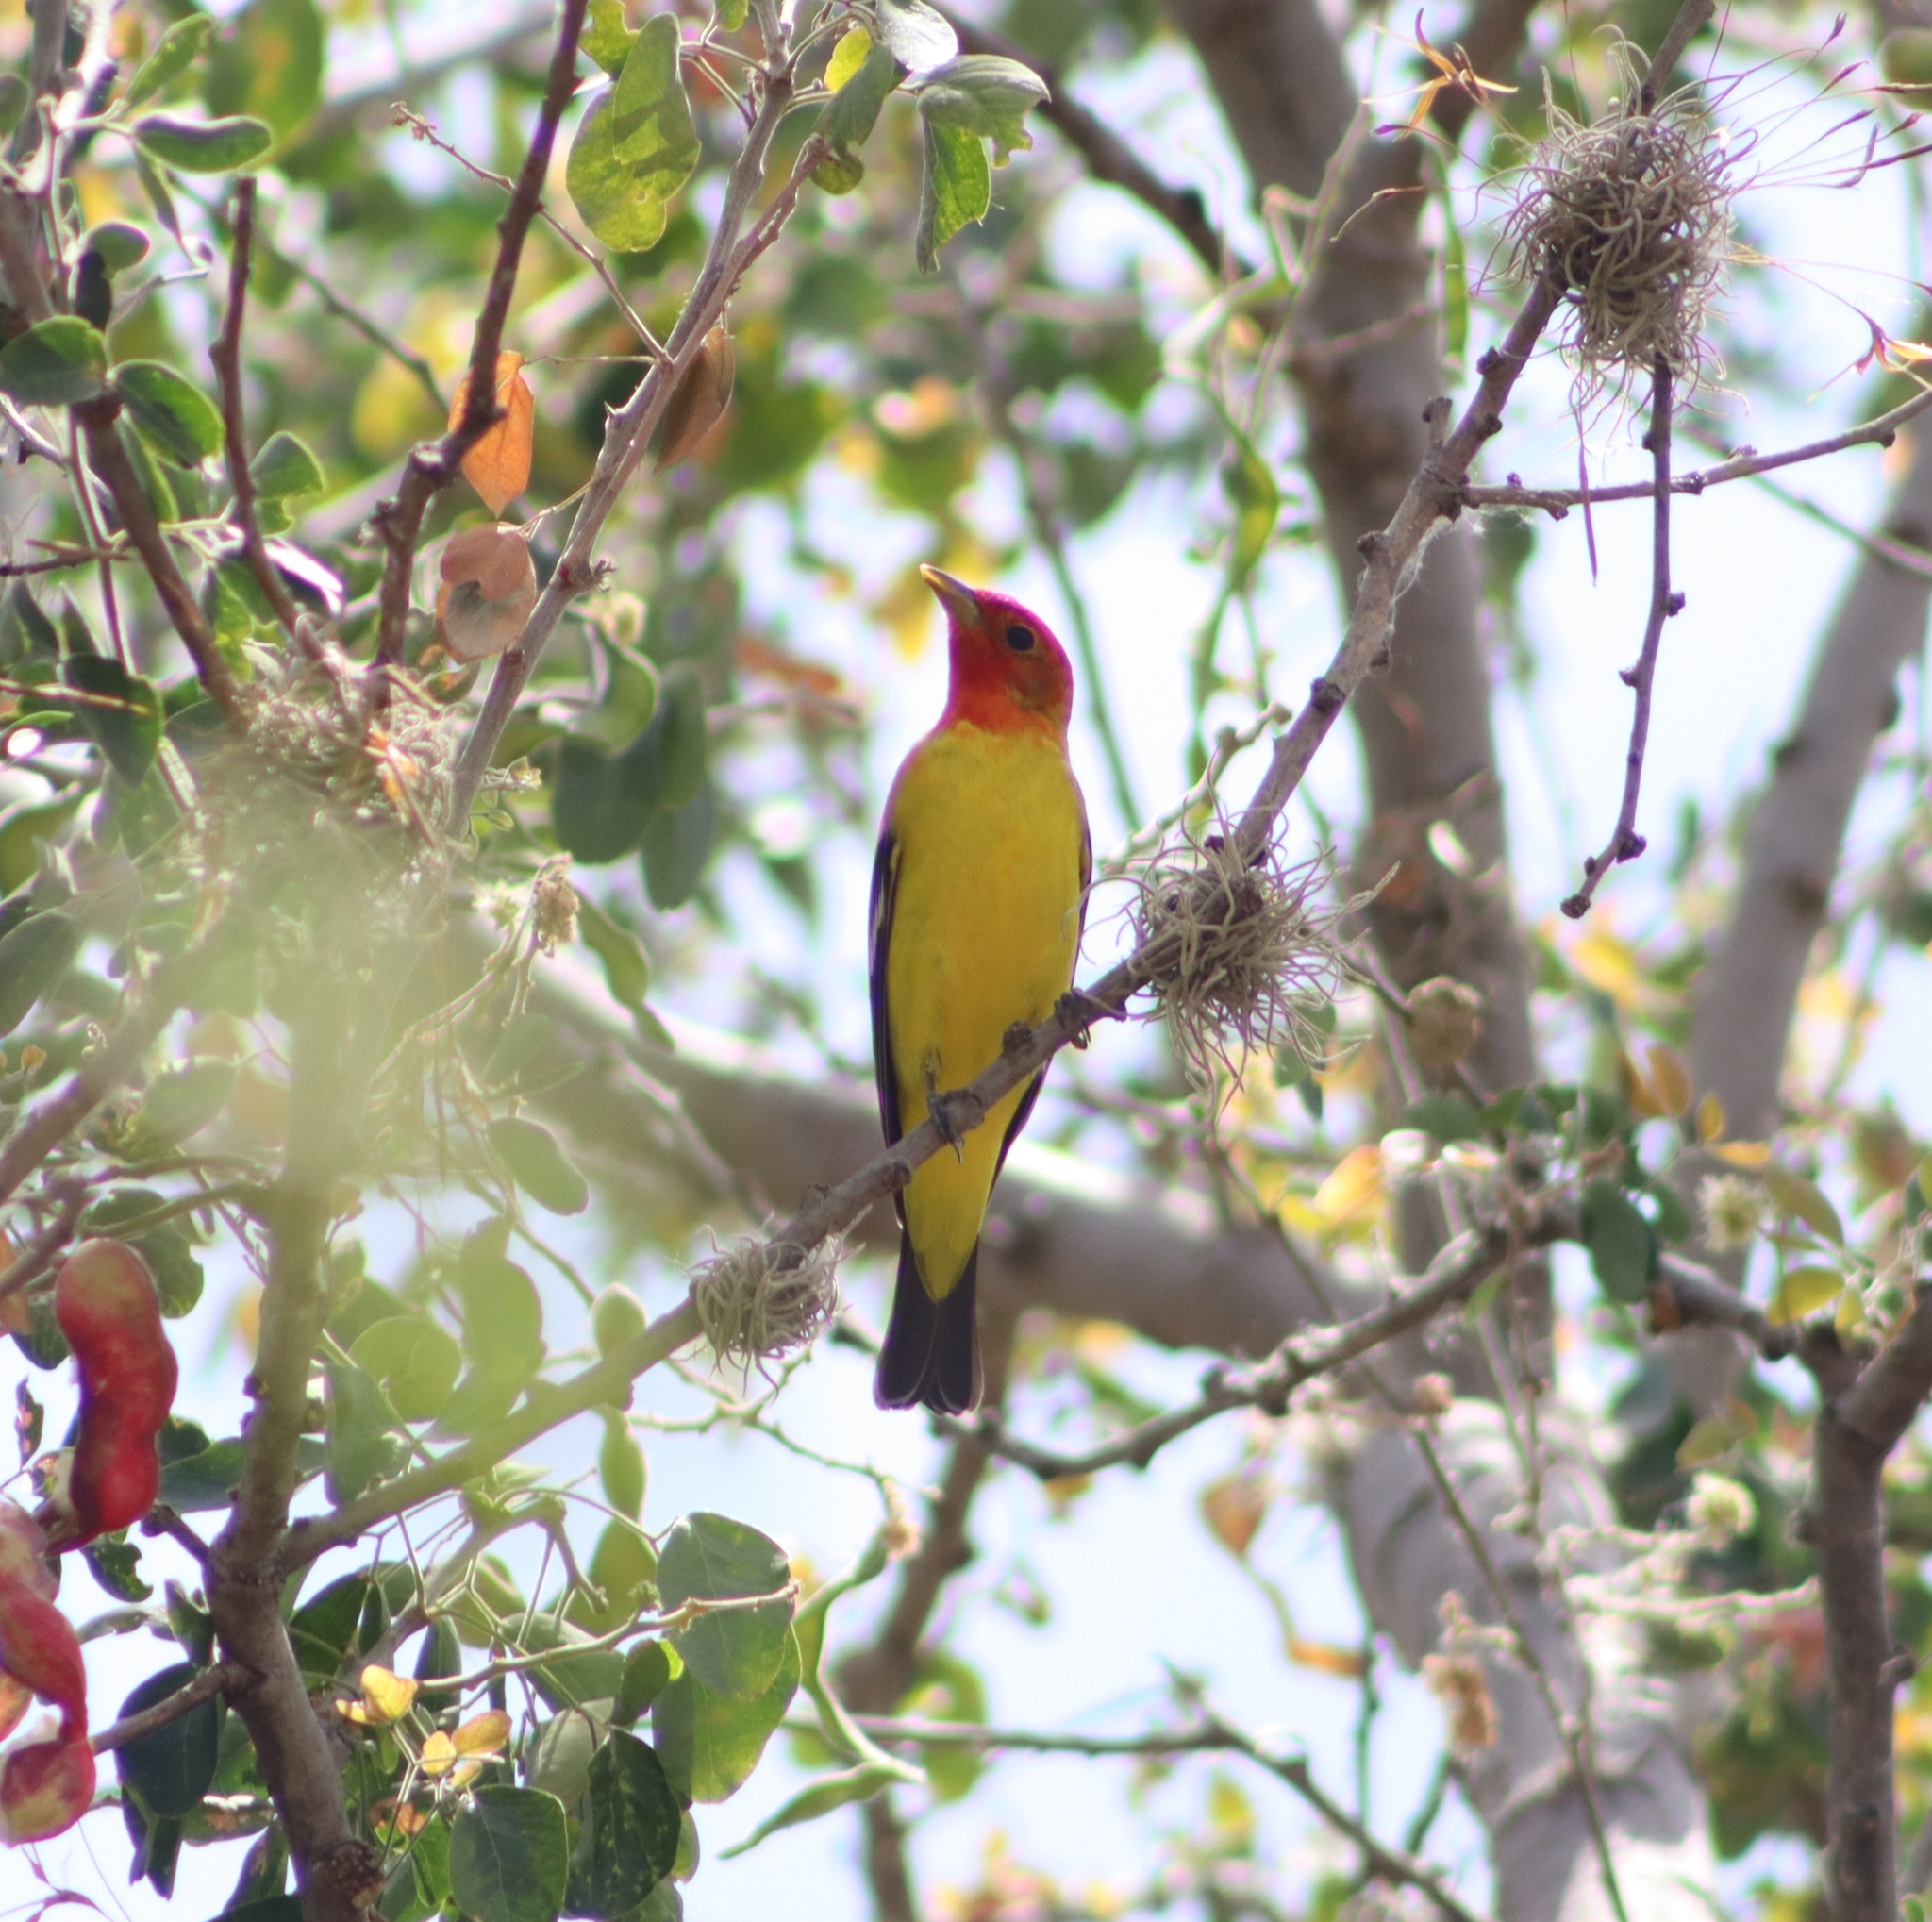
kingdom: Animalia
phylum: Chordata
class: Aves
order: Passeriformes
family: Cardinalidae
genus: Piranga
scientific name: Piranga ludoviciana
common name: Western tanager
